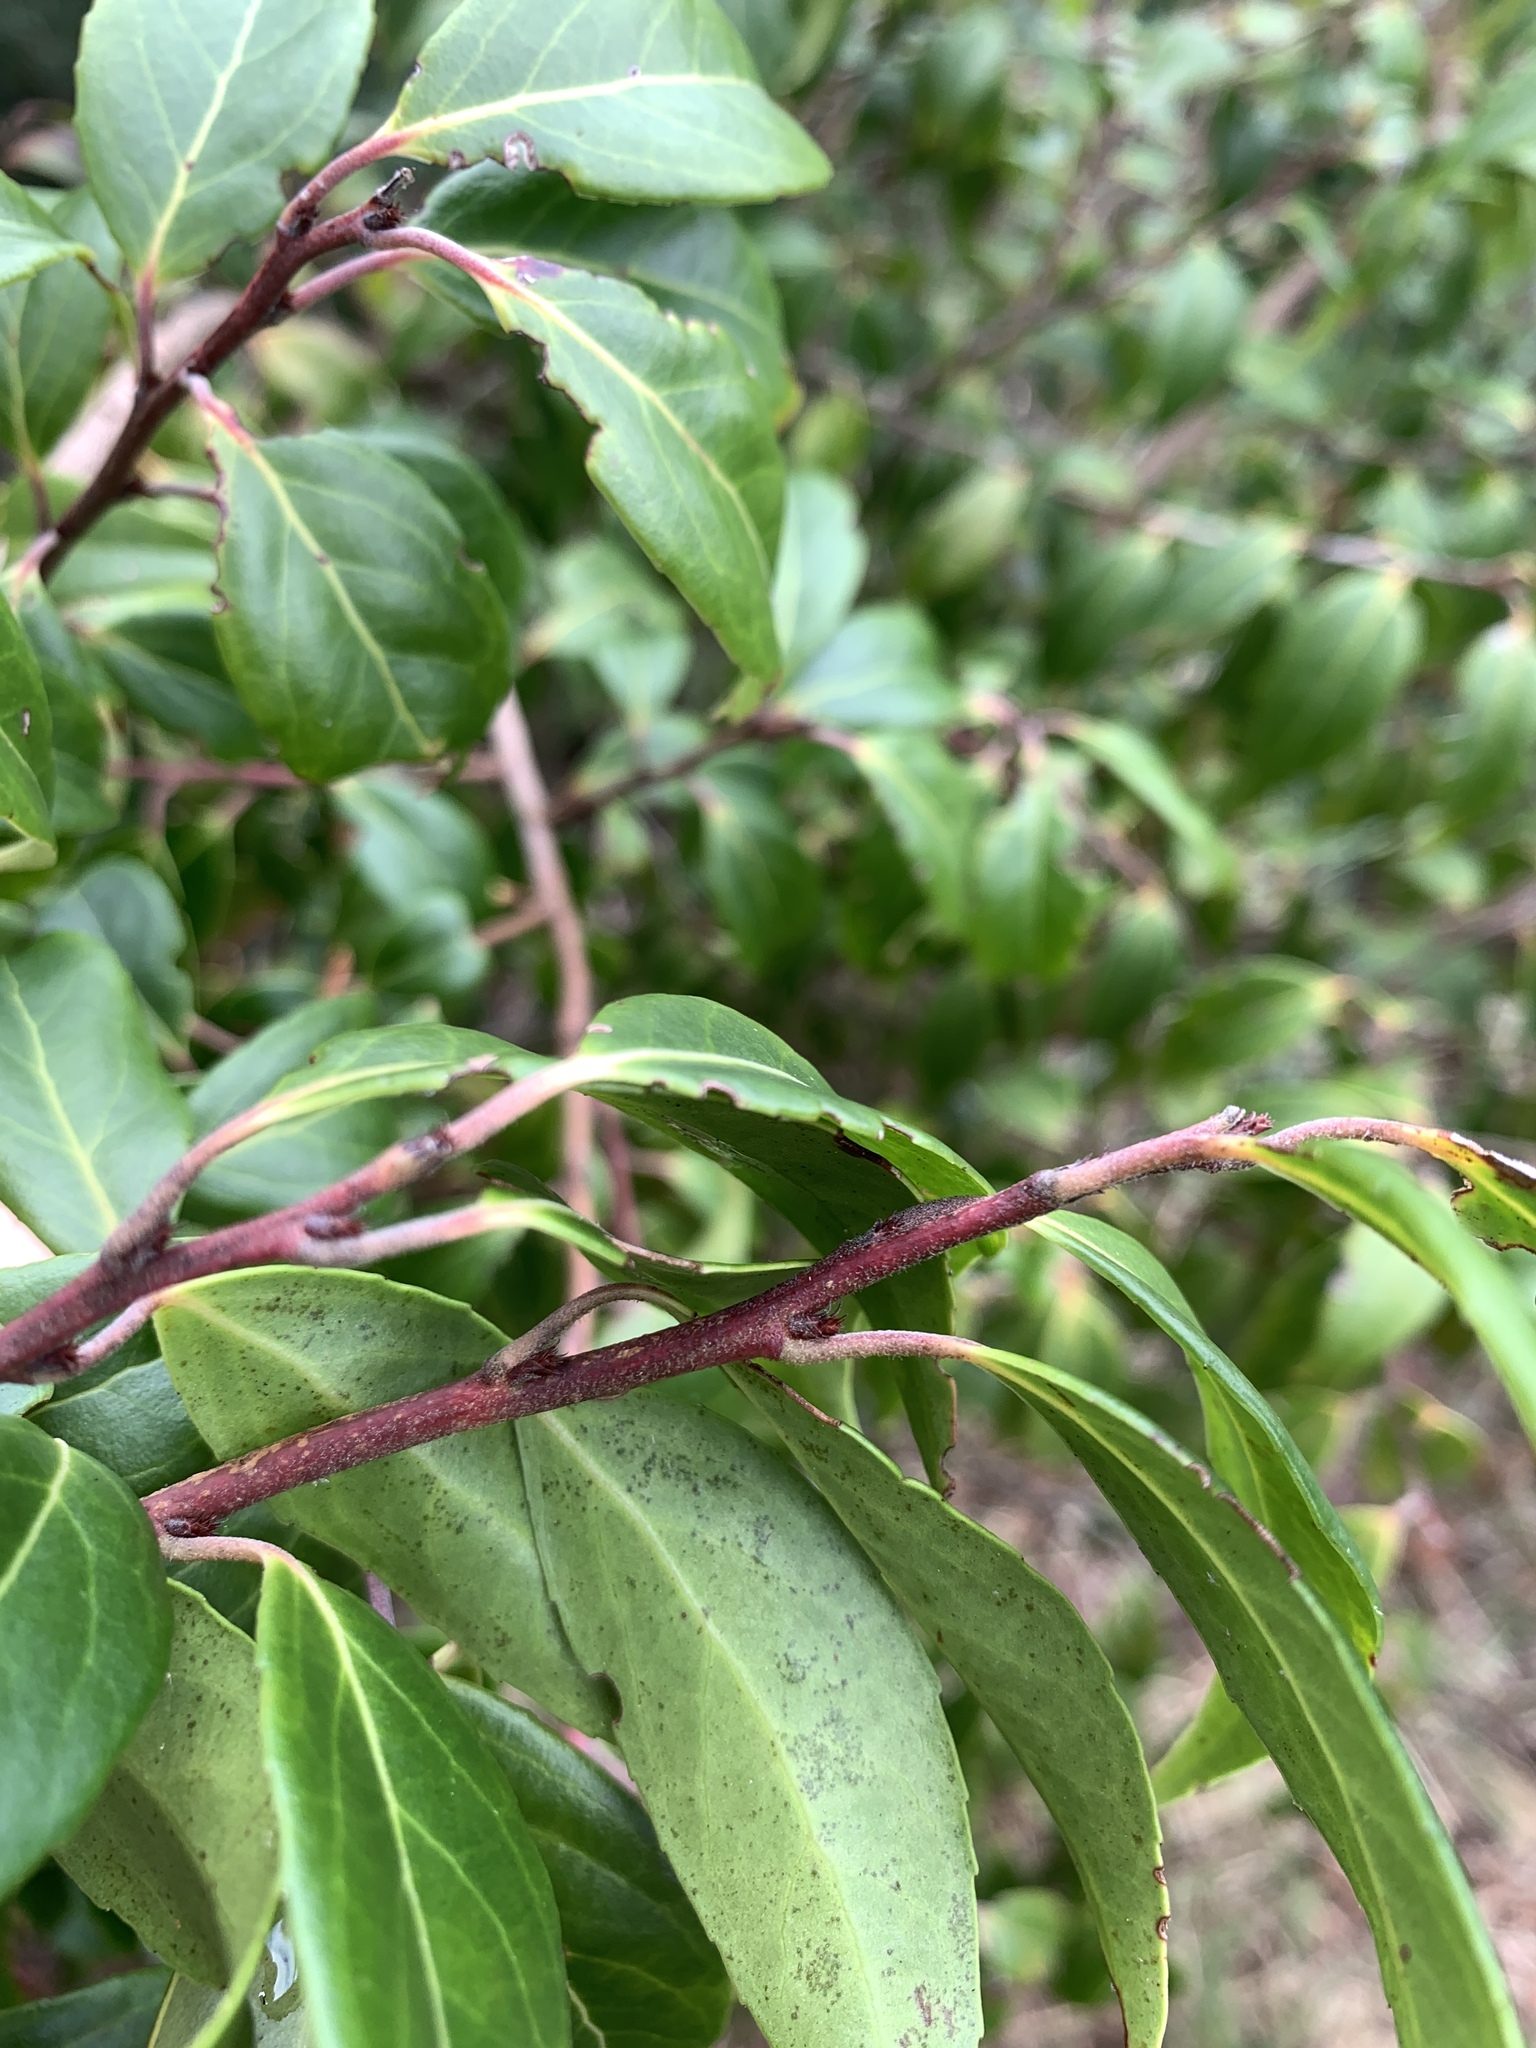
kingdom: Plantae
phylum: Tracheophyta
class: Magnoliopsida
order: Ericales
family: Ericaceae
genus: Vaccinium
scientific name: Vaccinium kengii
